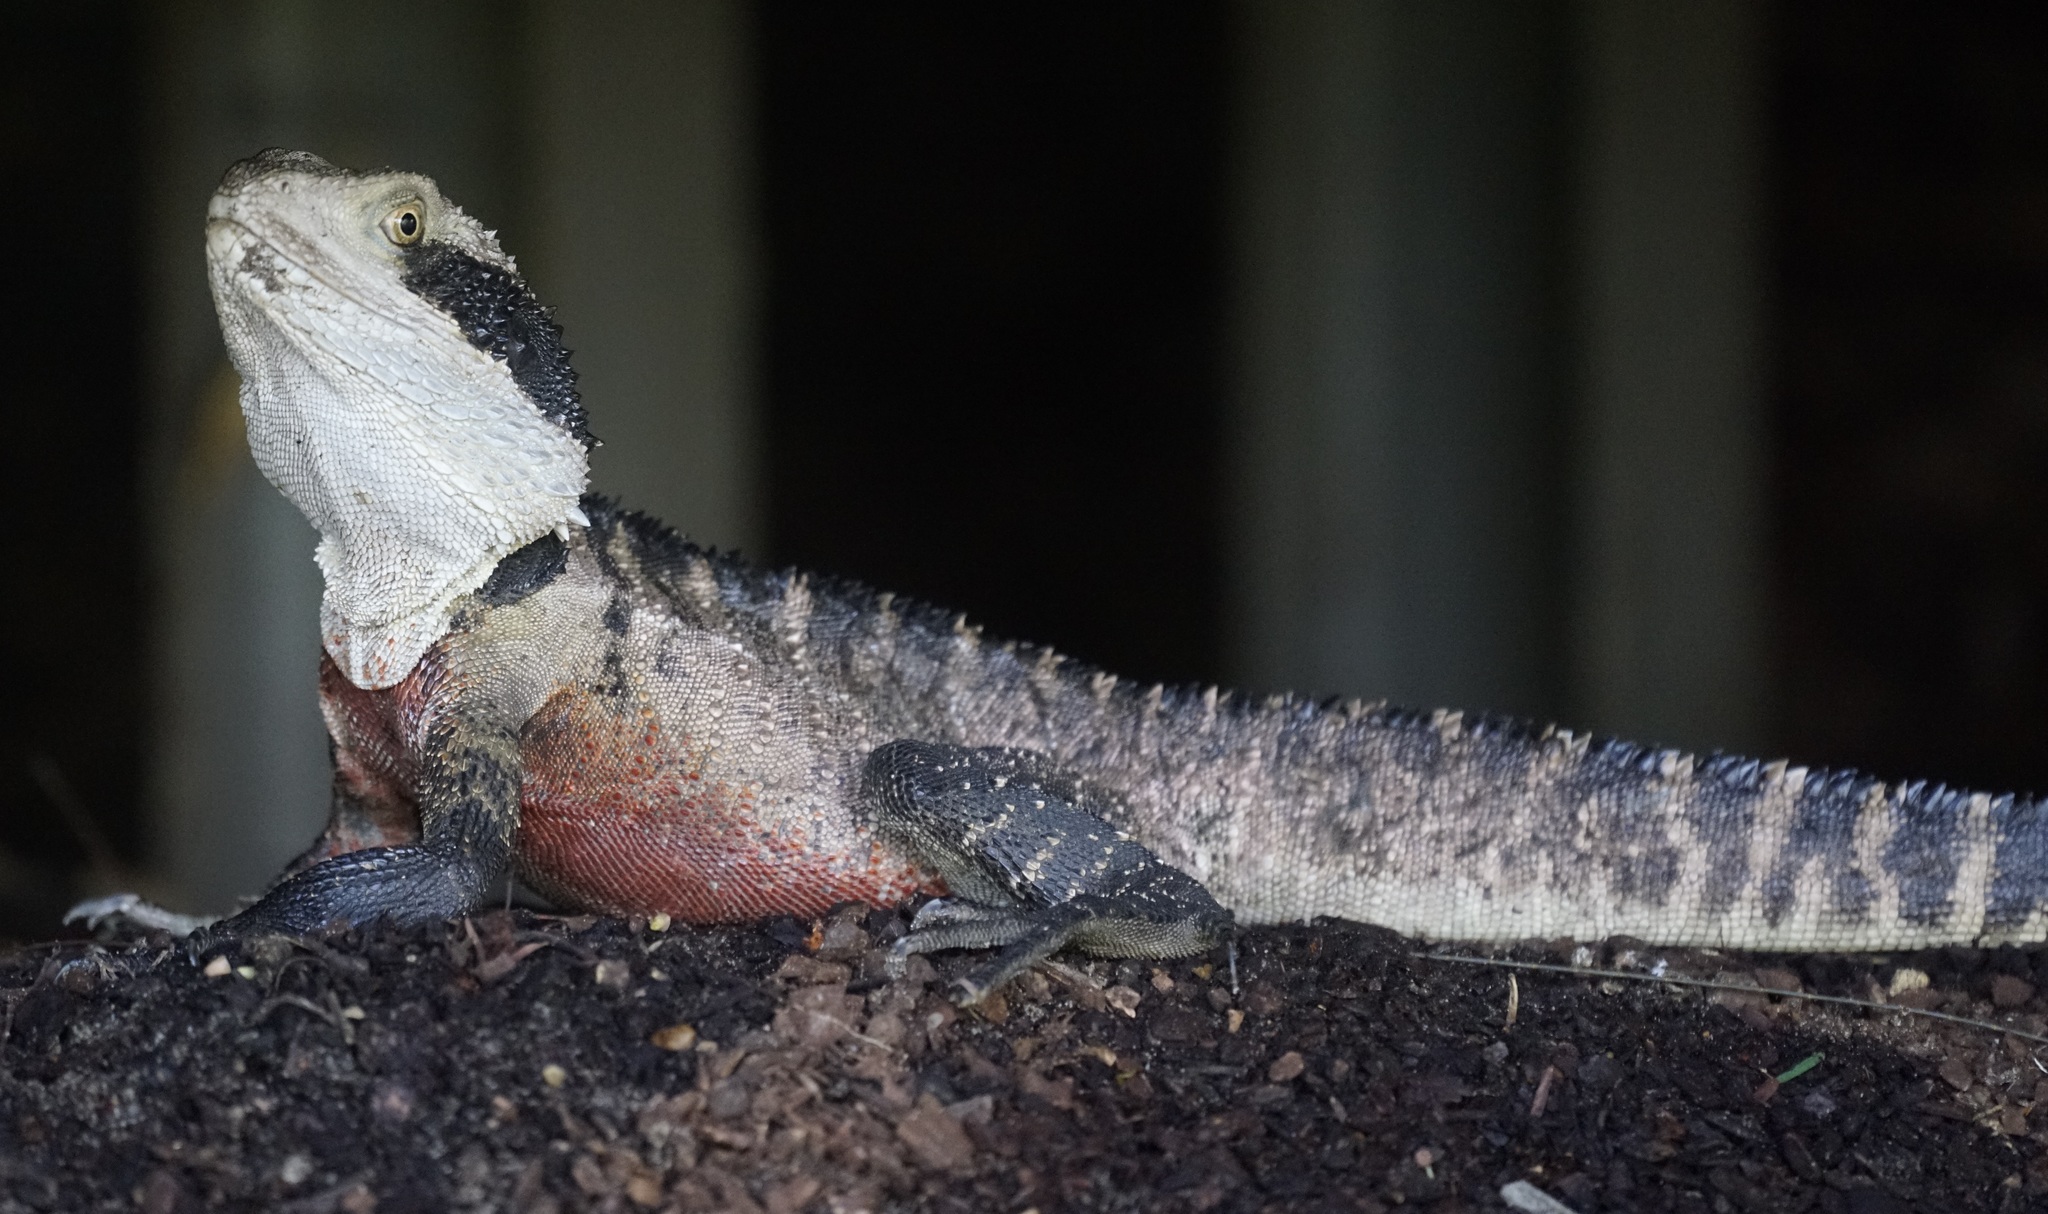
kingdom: Animalia
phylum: Chordata
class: Squamata
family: Agamidae
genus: Intellagama
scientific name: Intellagama lesueurii
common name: Eastern water dragon
